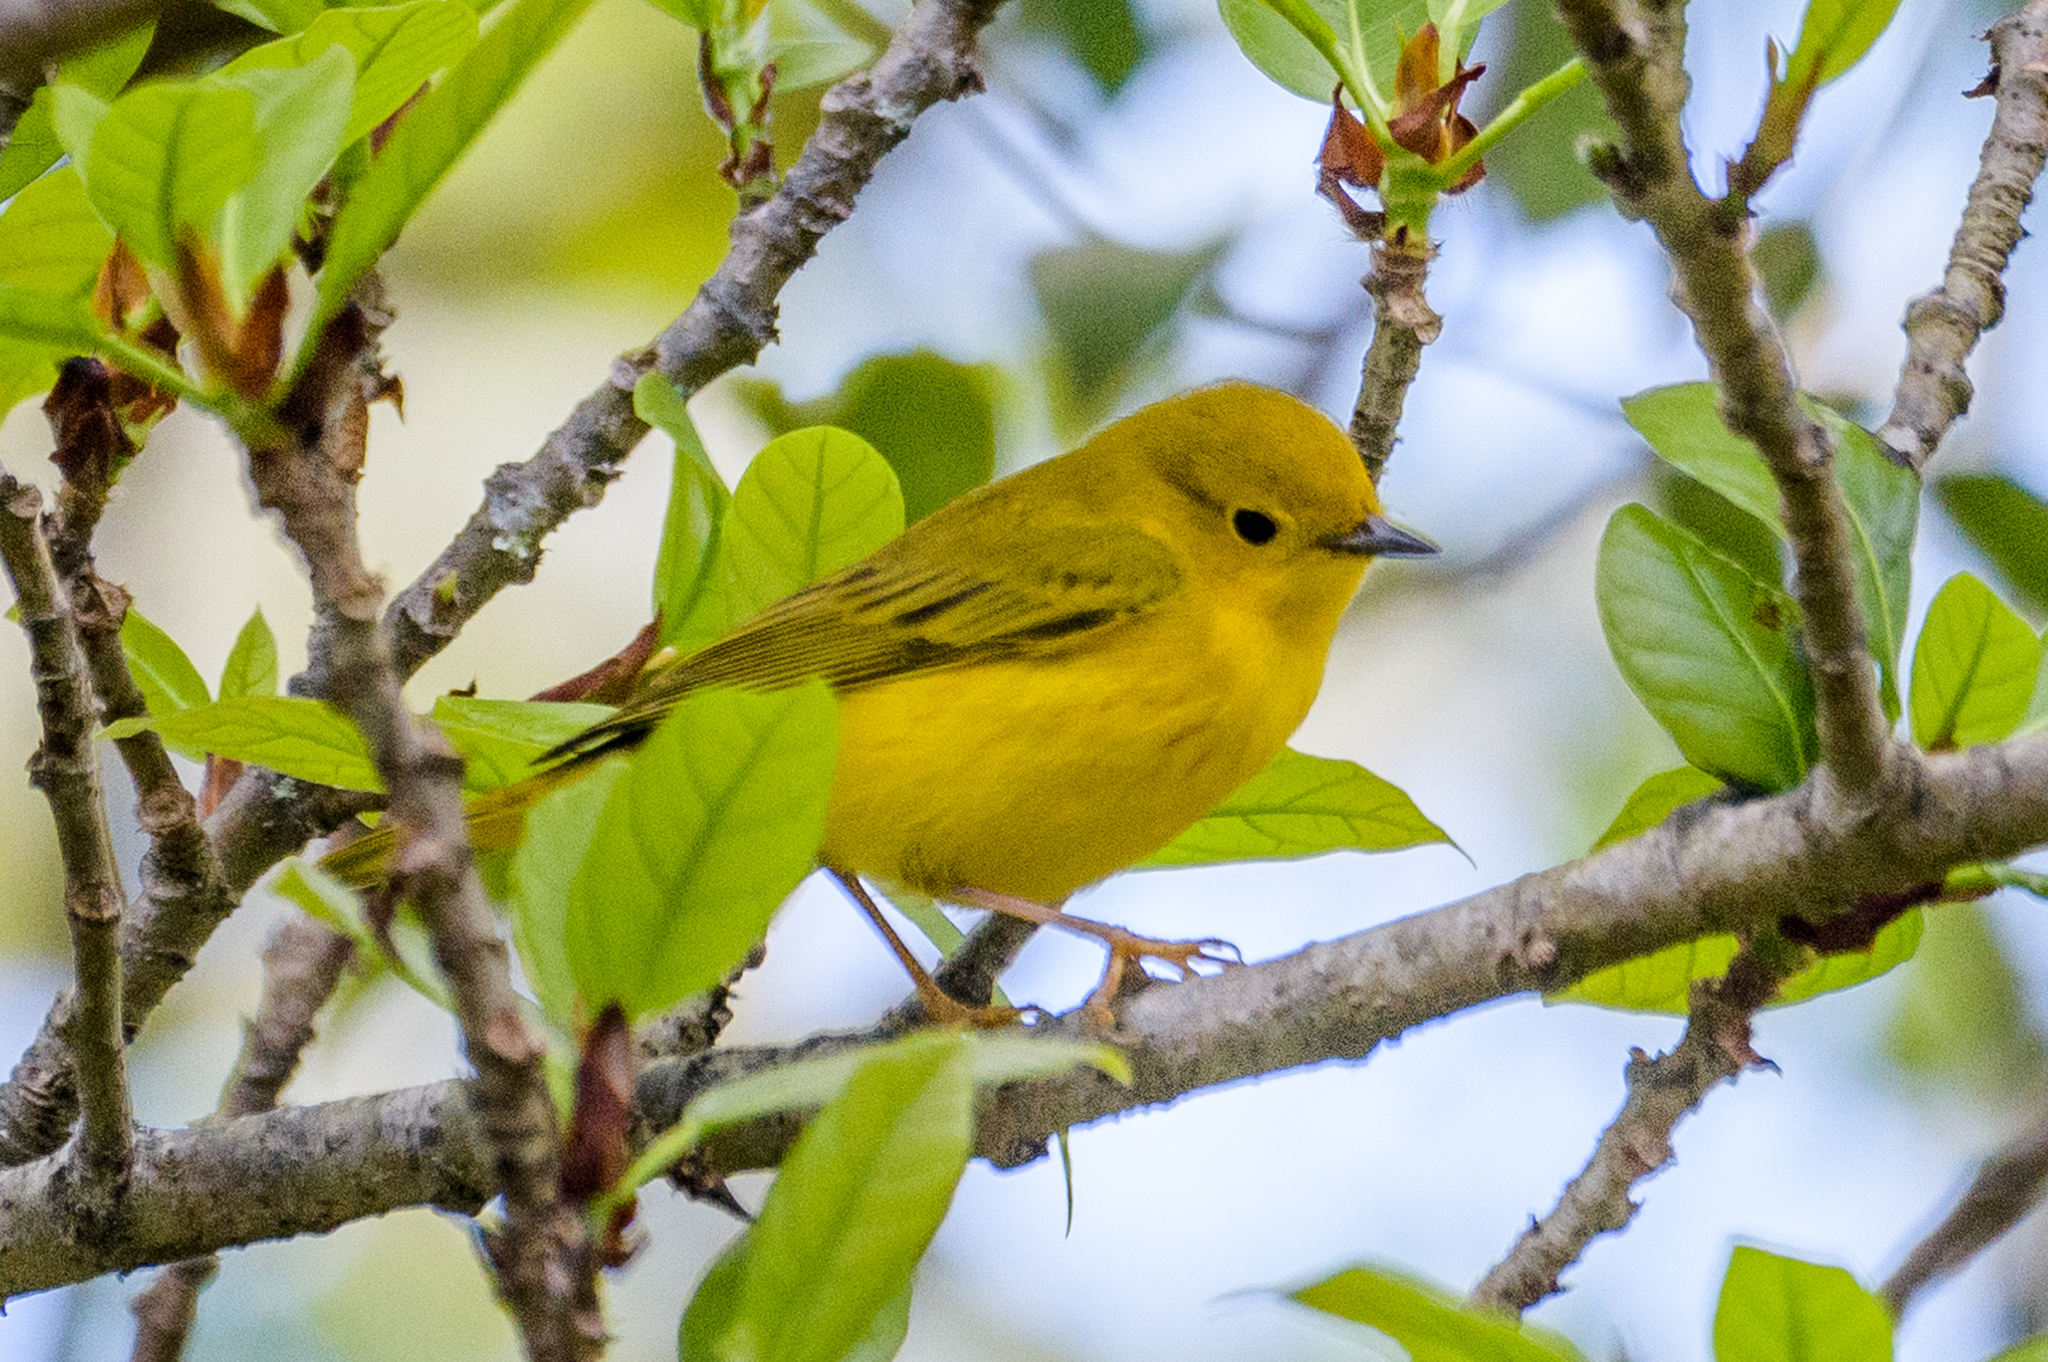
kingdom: Animalia
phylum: Chordata
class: Aves
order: Passeriformes
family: Parulidae
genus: Setophaga
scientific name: Setophaga petechia
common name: Yellow warbler
